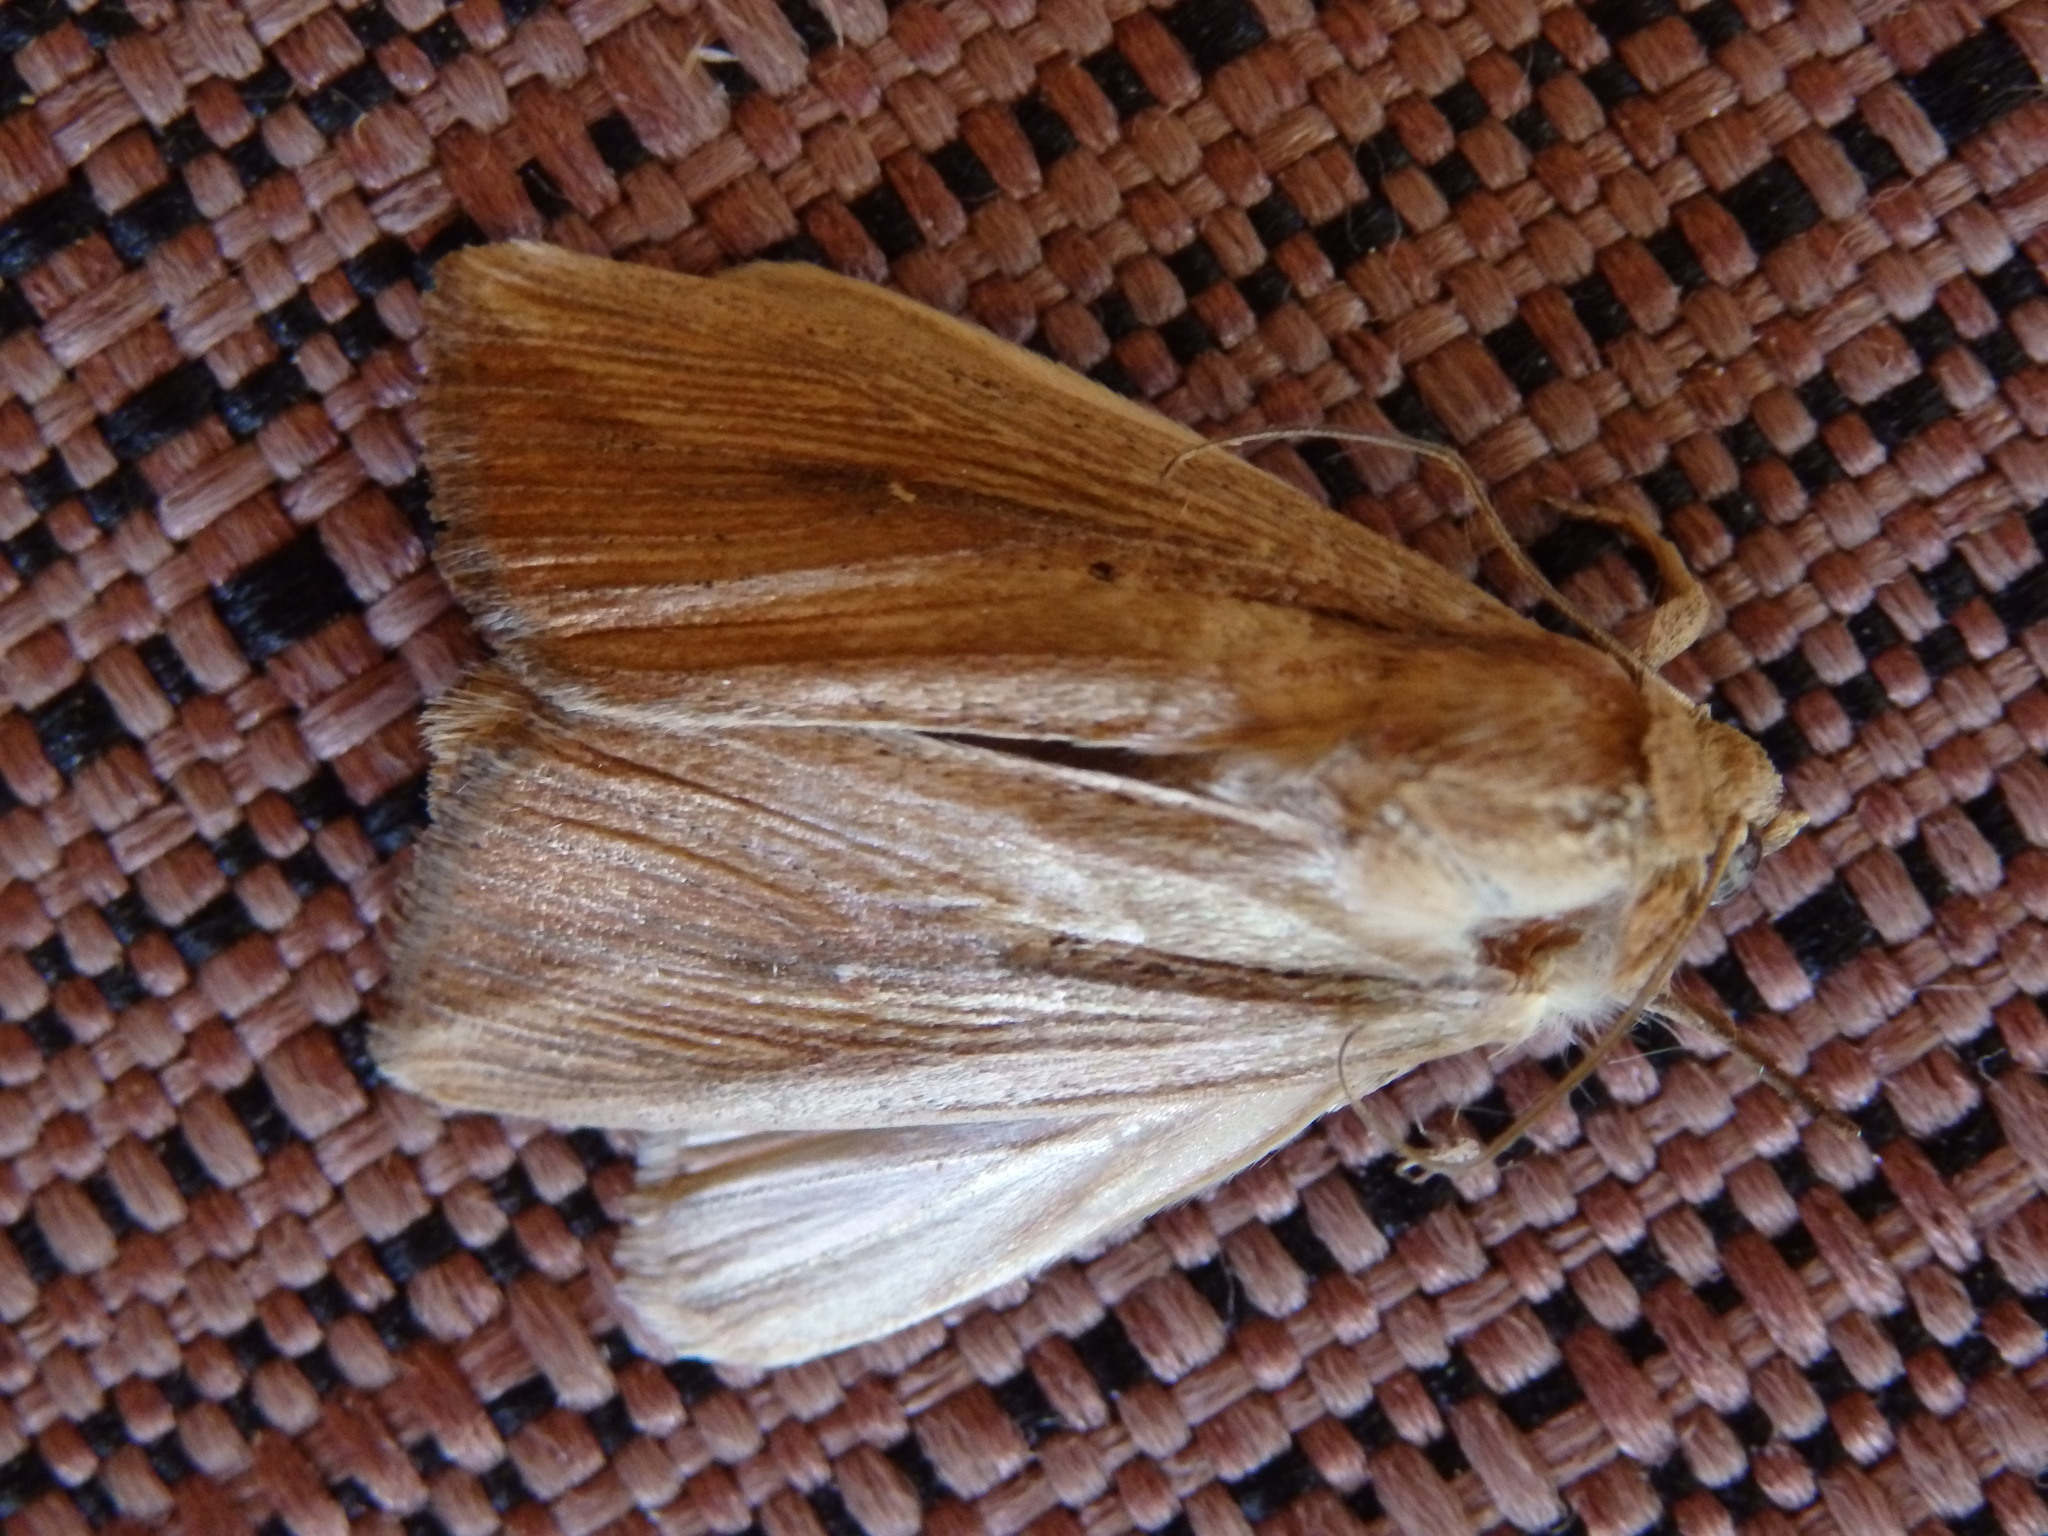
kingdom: Animalia
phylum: Arthropoda
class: Insecta
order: Lepidoptera
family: Noctuidae
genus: Leucania
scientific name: Leucania loreyi
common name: The cosmopolitan
